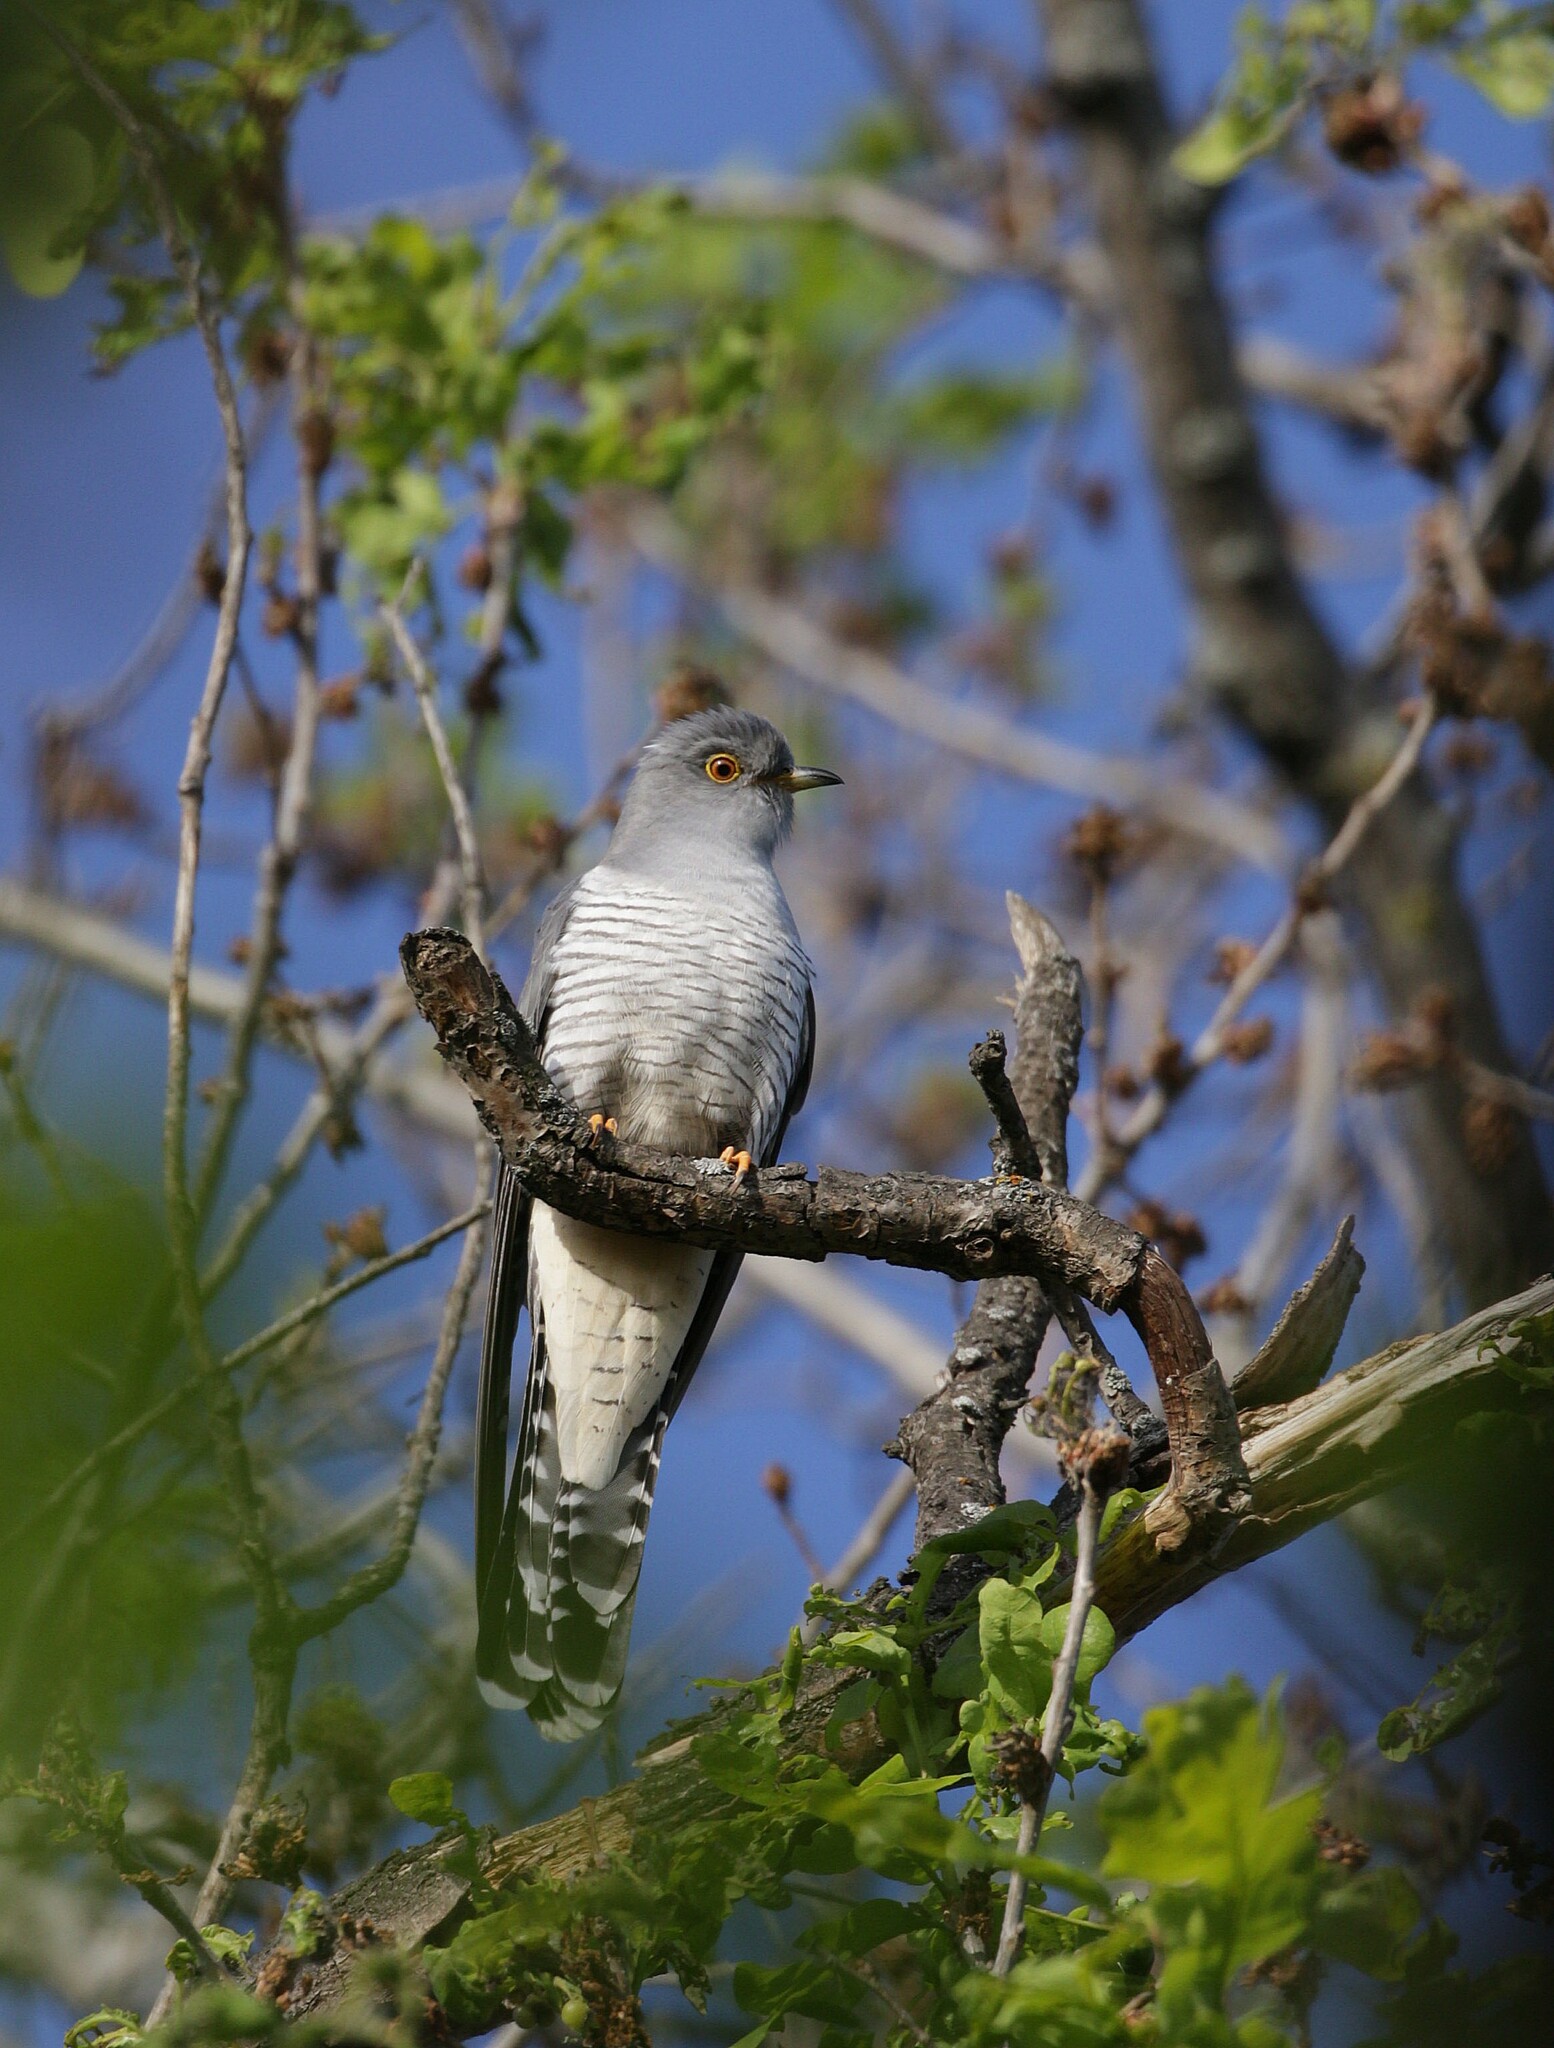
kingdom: Animalia
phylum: Chordata
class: Aves
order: Cuculiformes
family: Cuculidae
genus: Cuculus
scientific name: Cuculus canorus
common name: Common cuckoo
